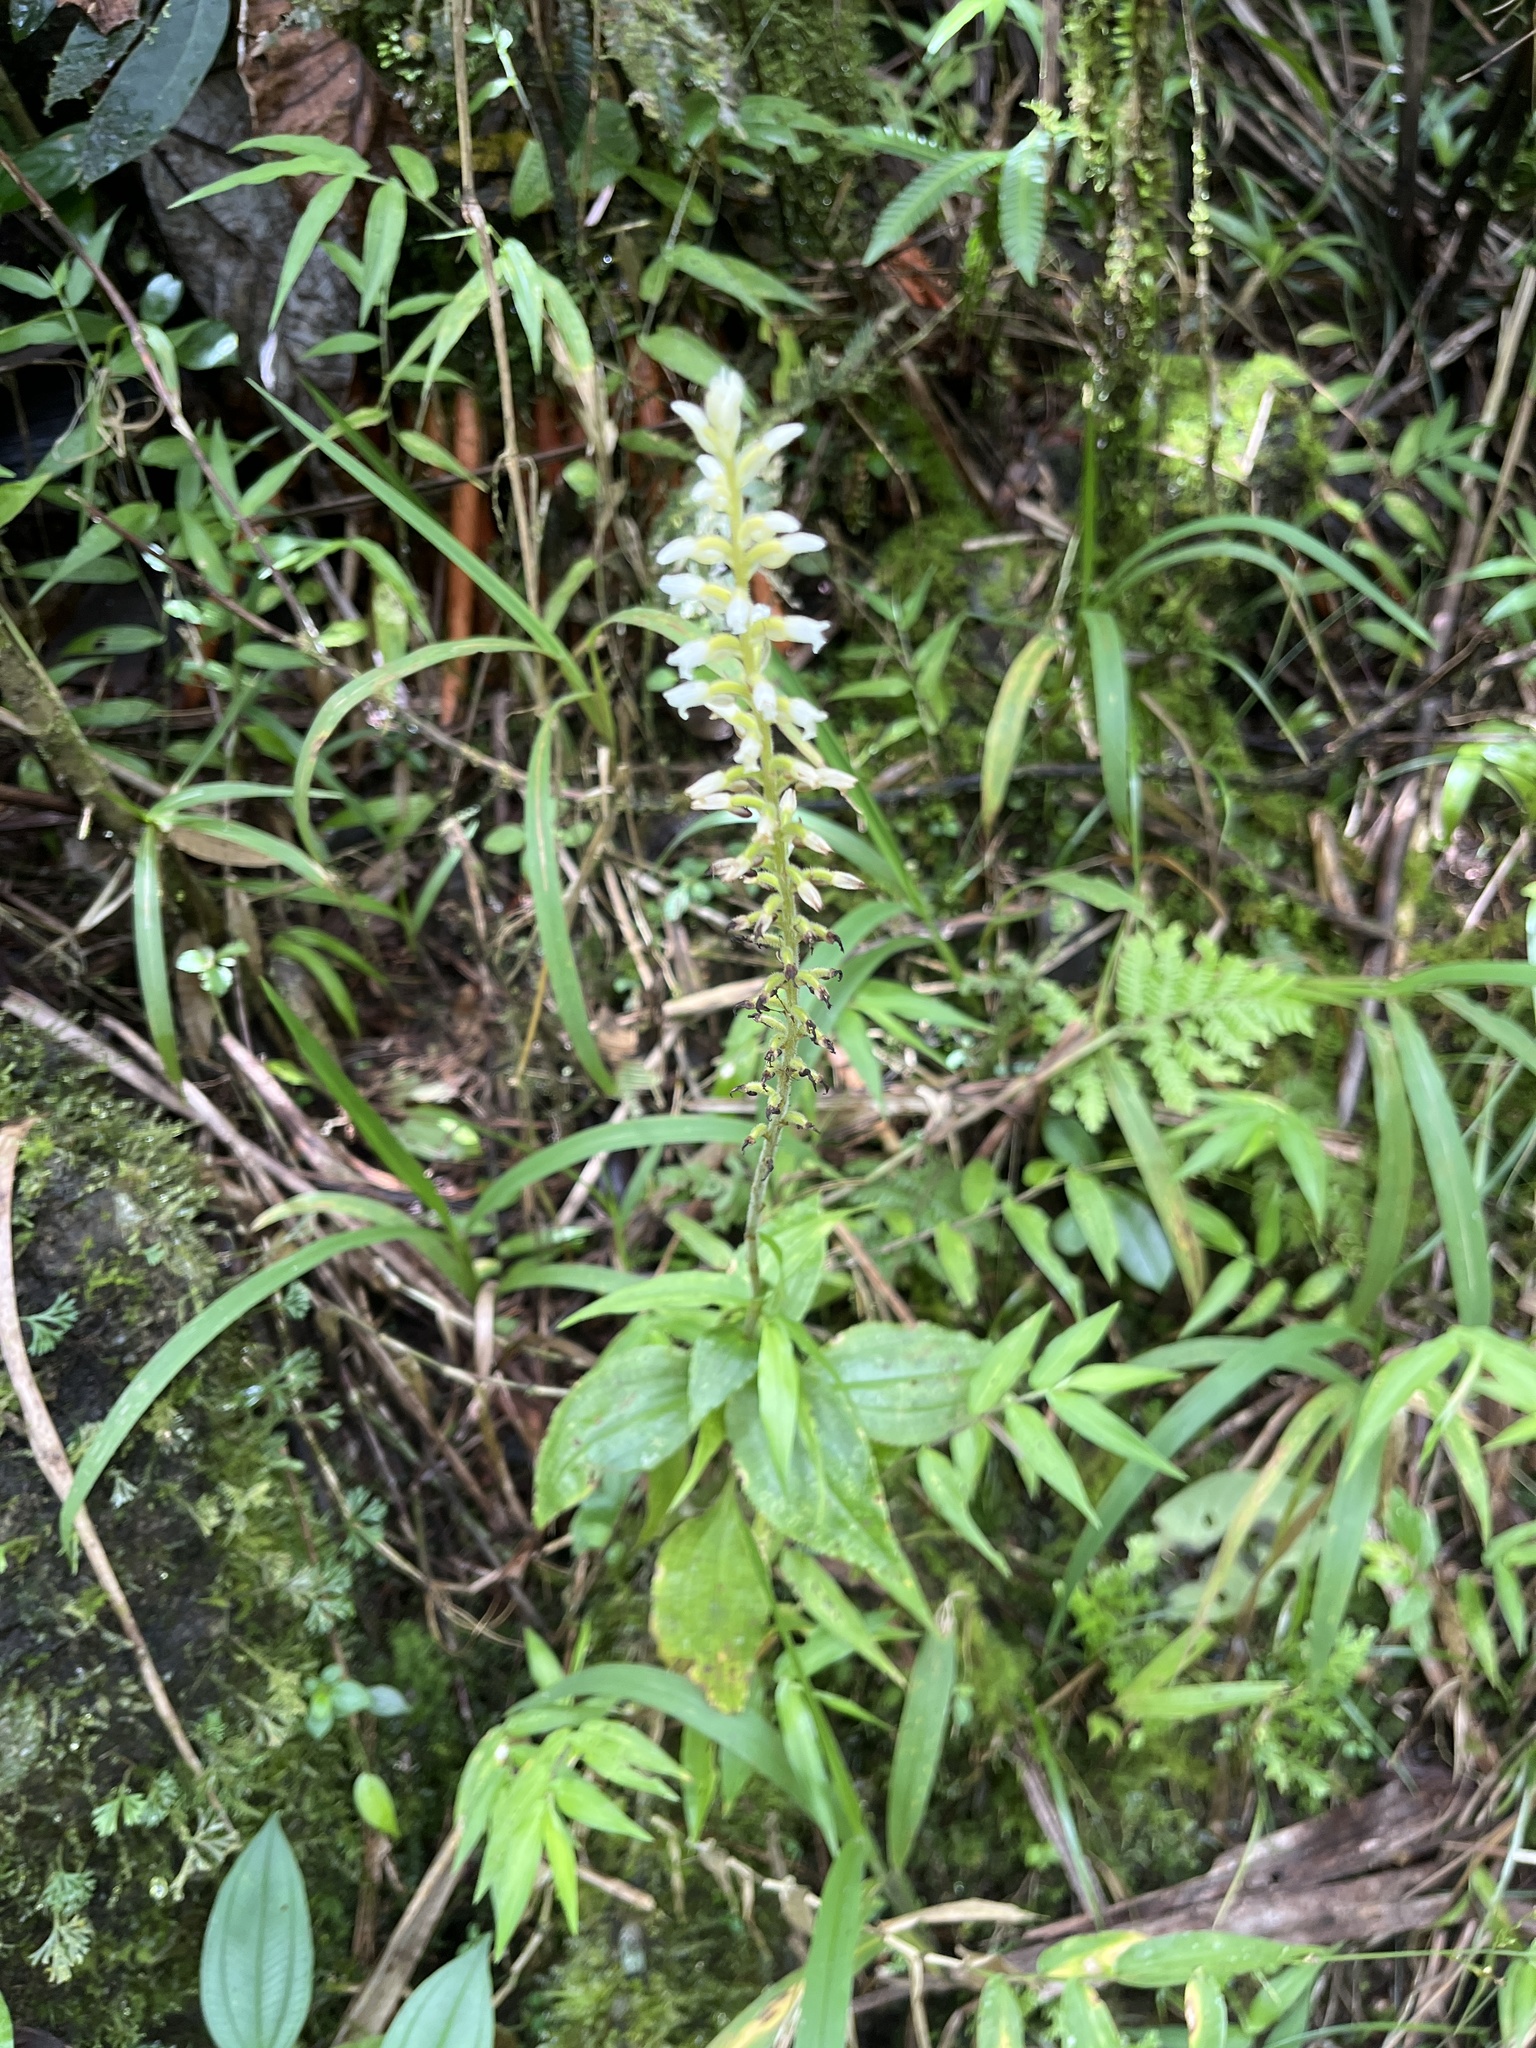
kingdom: Plantae
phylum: Tracheophyta
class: Liliopsida
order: Asparagales
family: Orchidaceae
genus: Microchilus
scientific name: Microchilus plantagineus
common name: Caribbean false helmetorchid
